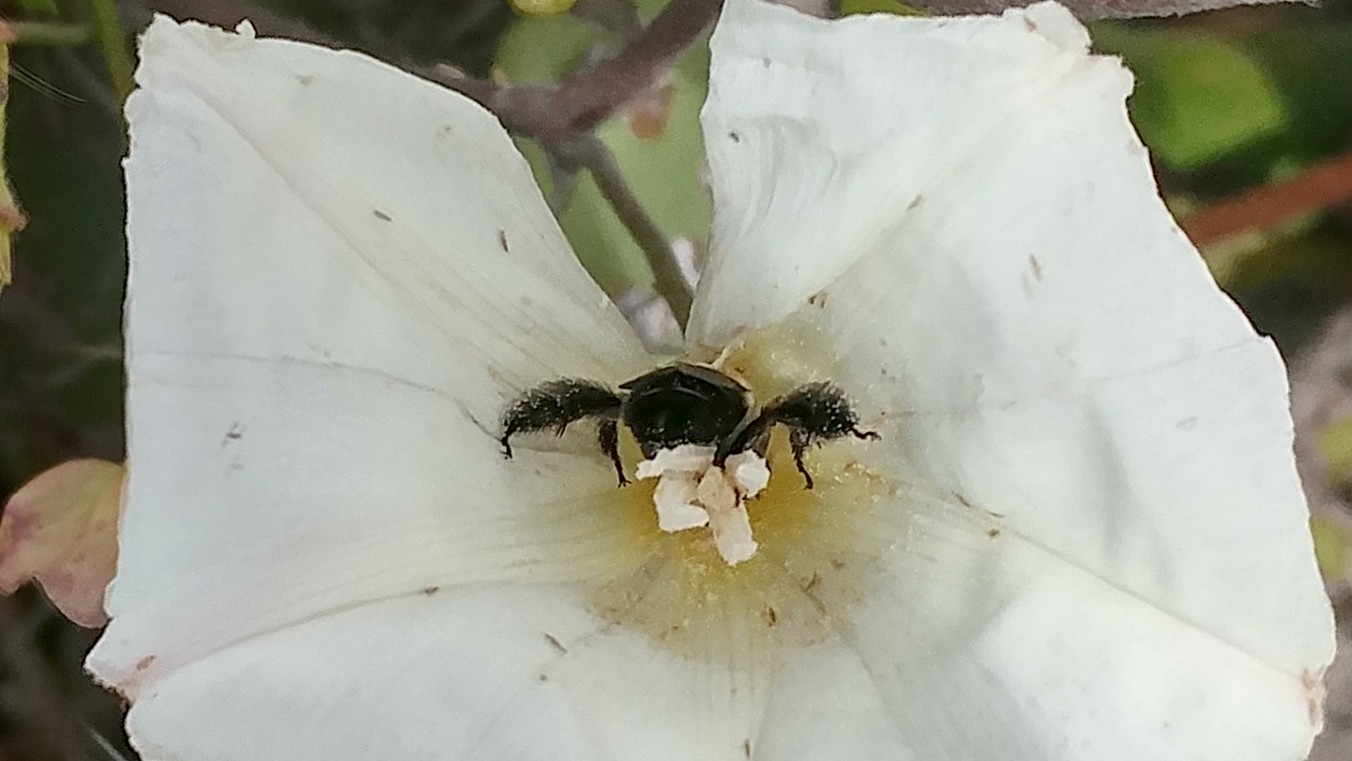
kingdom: Animalia
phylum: Arthropoda
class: Insecta
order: Hymenoptera
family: Apidae
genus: Diadasia
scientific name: Diadasia bituberculata
